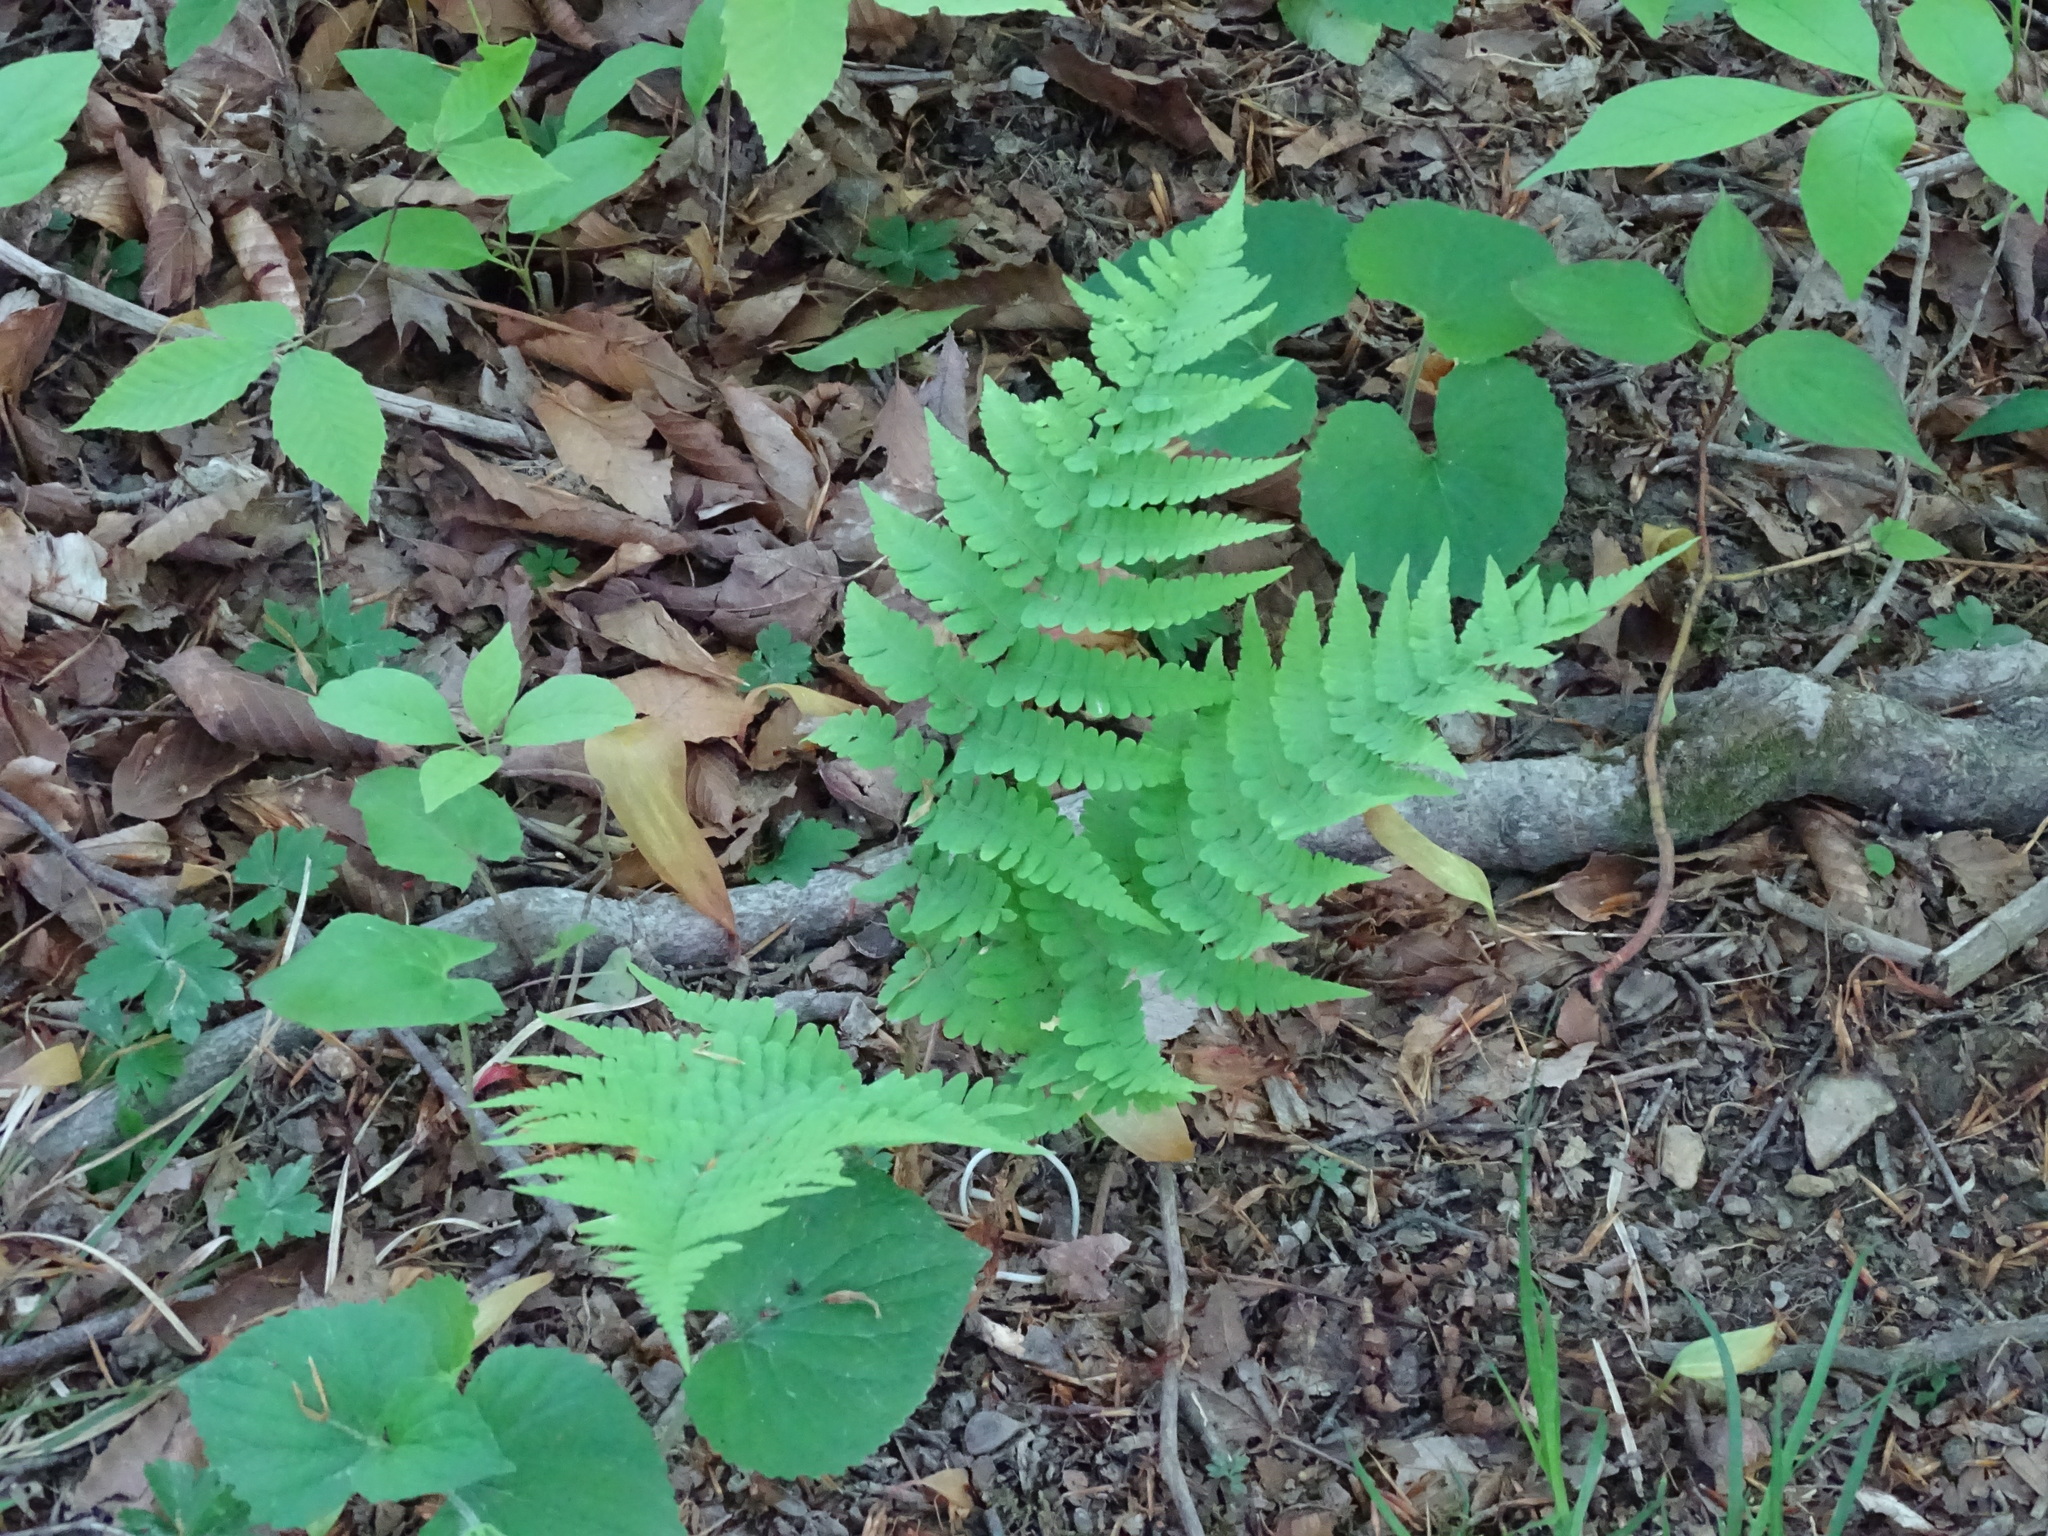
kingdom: Plantae
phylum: Tracheophyta
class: Polypodiopsida
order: Polypodiales
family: Dryopteridaceae
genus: Dryopteris
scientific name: Dryopteris marginalis
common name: Marginal wood fern
